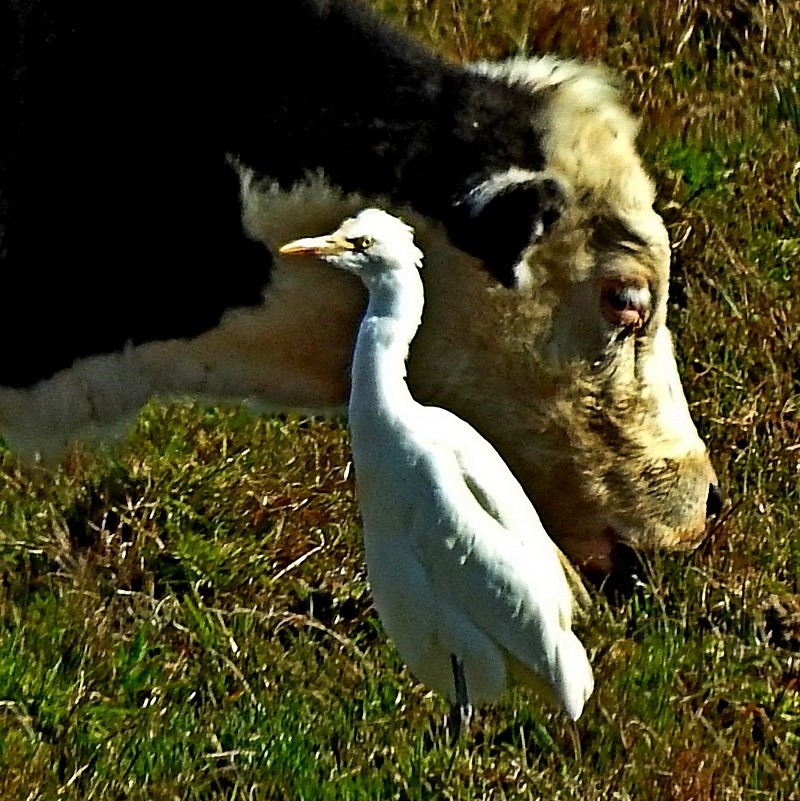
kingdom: Animalia
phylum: Chordata
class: Aves
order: Pelecaniformes
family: Ardeidae
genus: Bubulcus
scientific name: Bubulcus coromandus
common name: Eastern cattle egret
